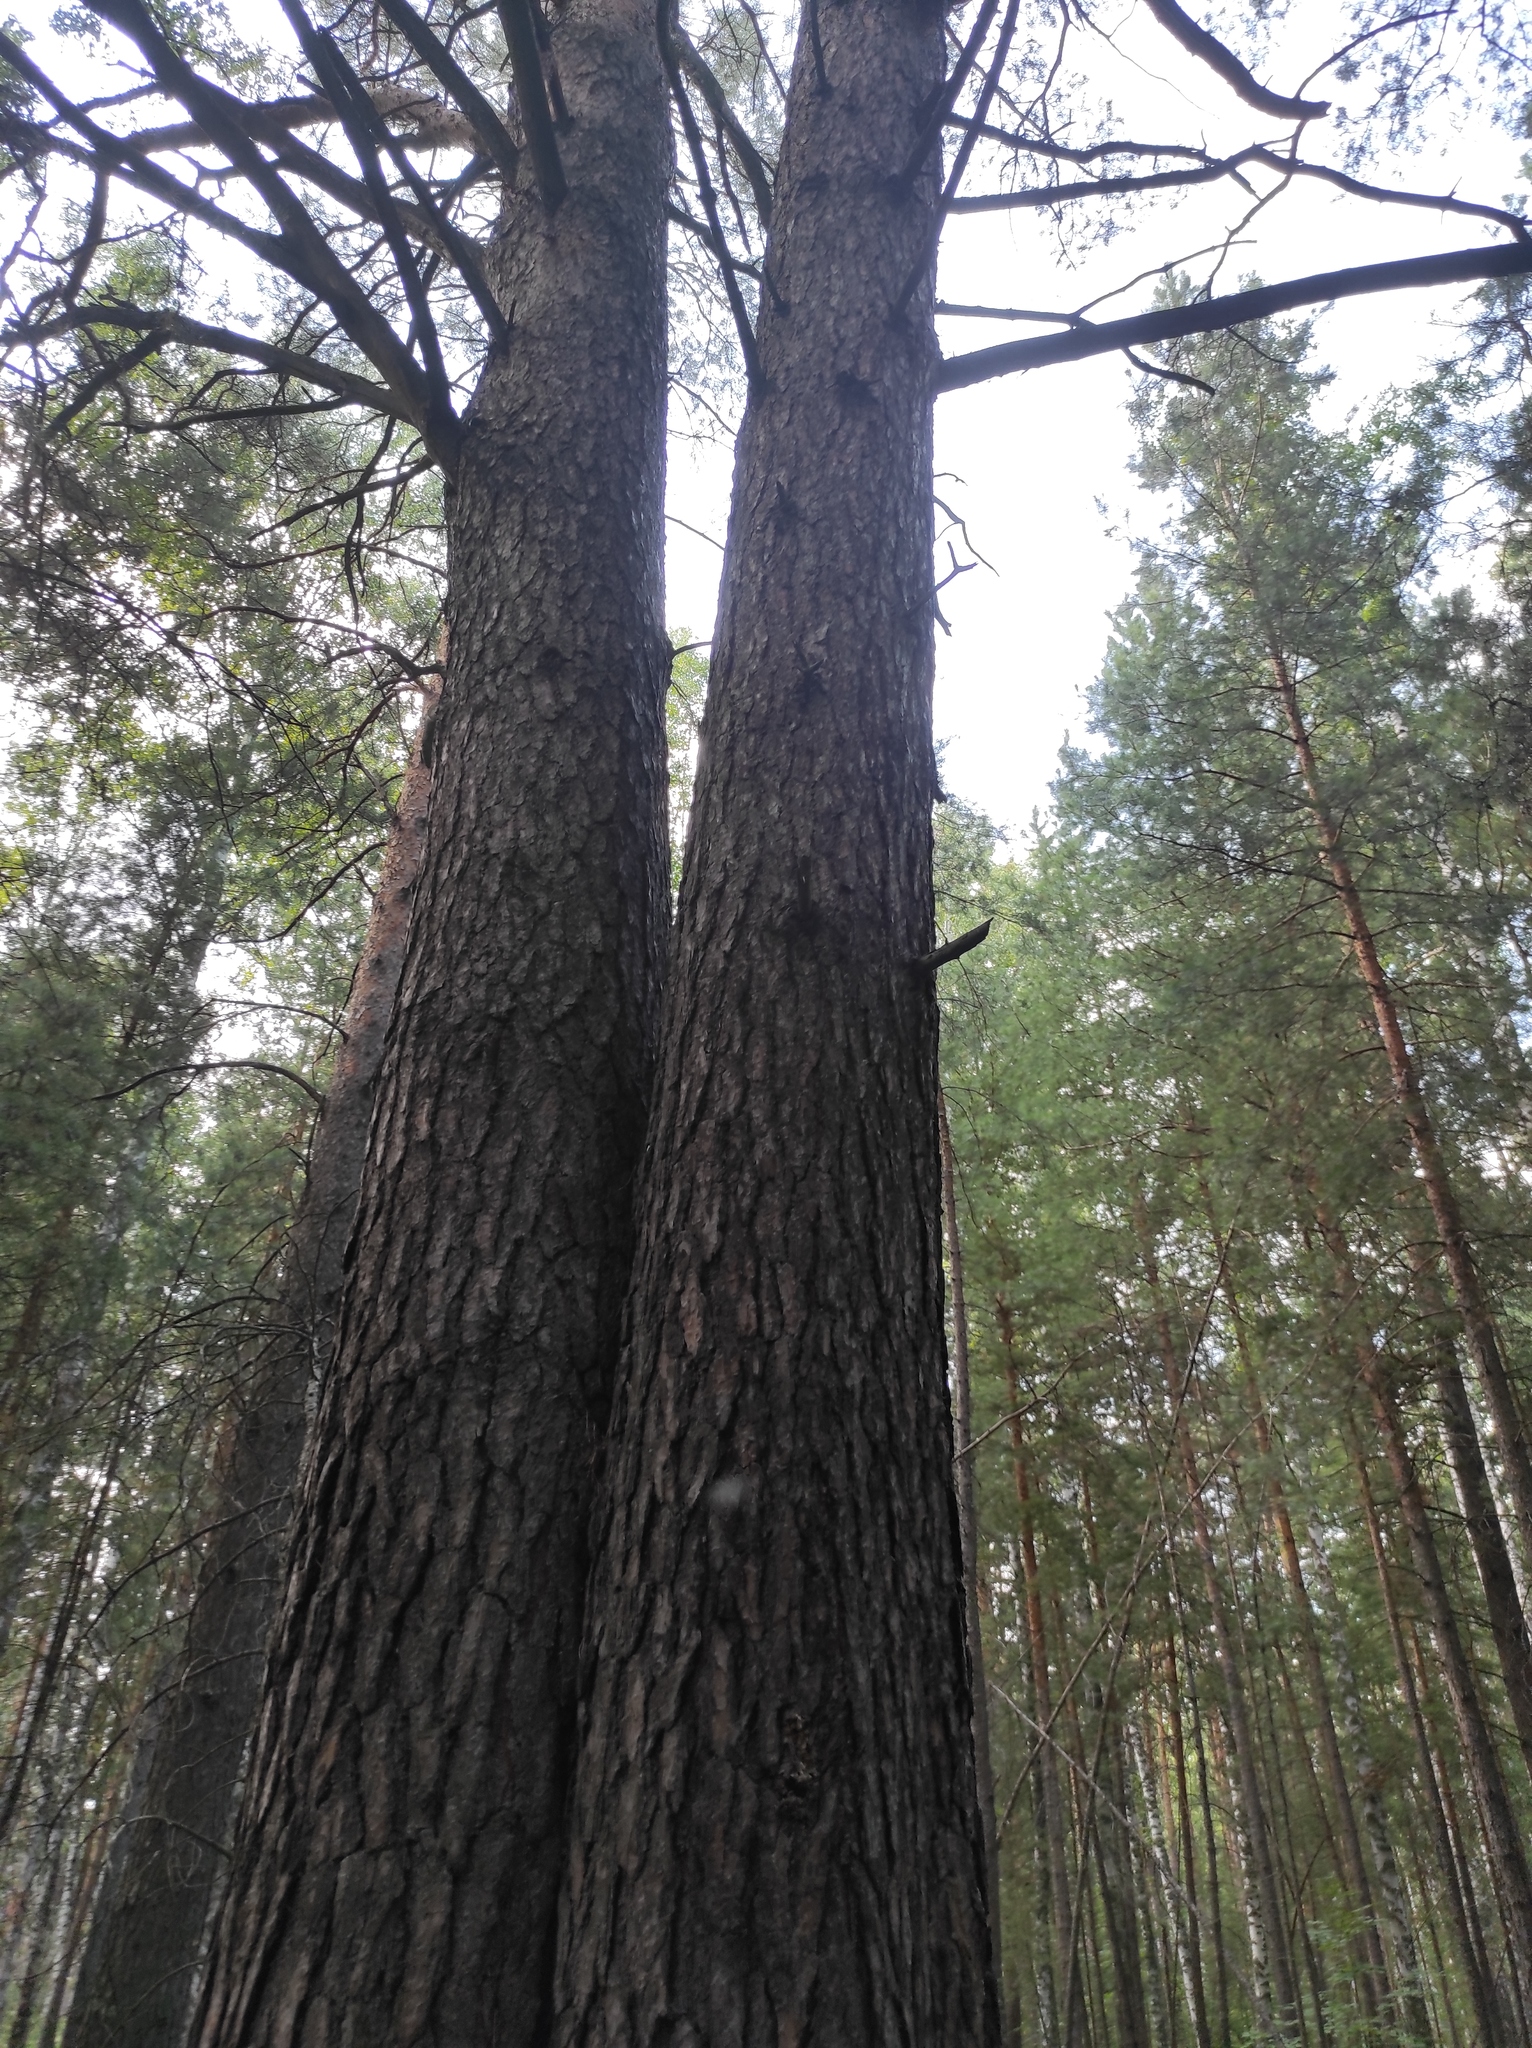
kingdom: Plantae
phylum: Tracheophyta
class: Pinopsida
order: Pinales
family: Pinaceae
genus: Pinus
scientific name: Pinus sylvestris
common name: Scots pine
